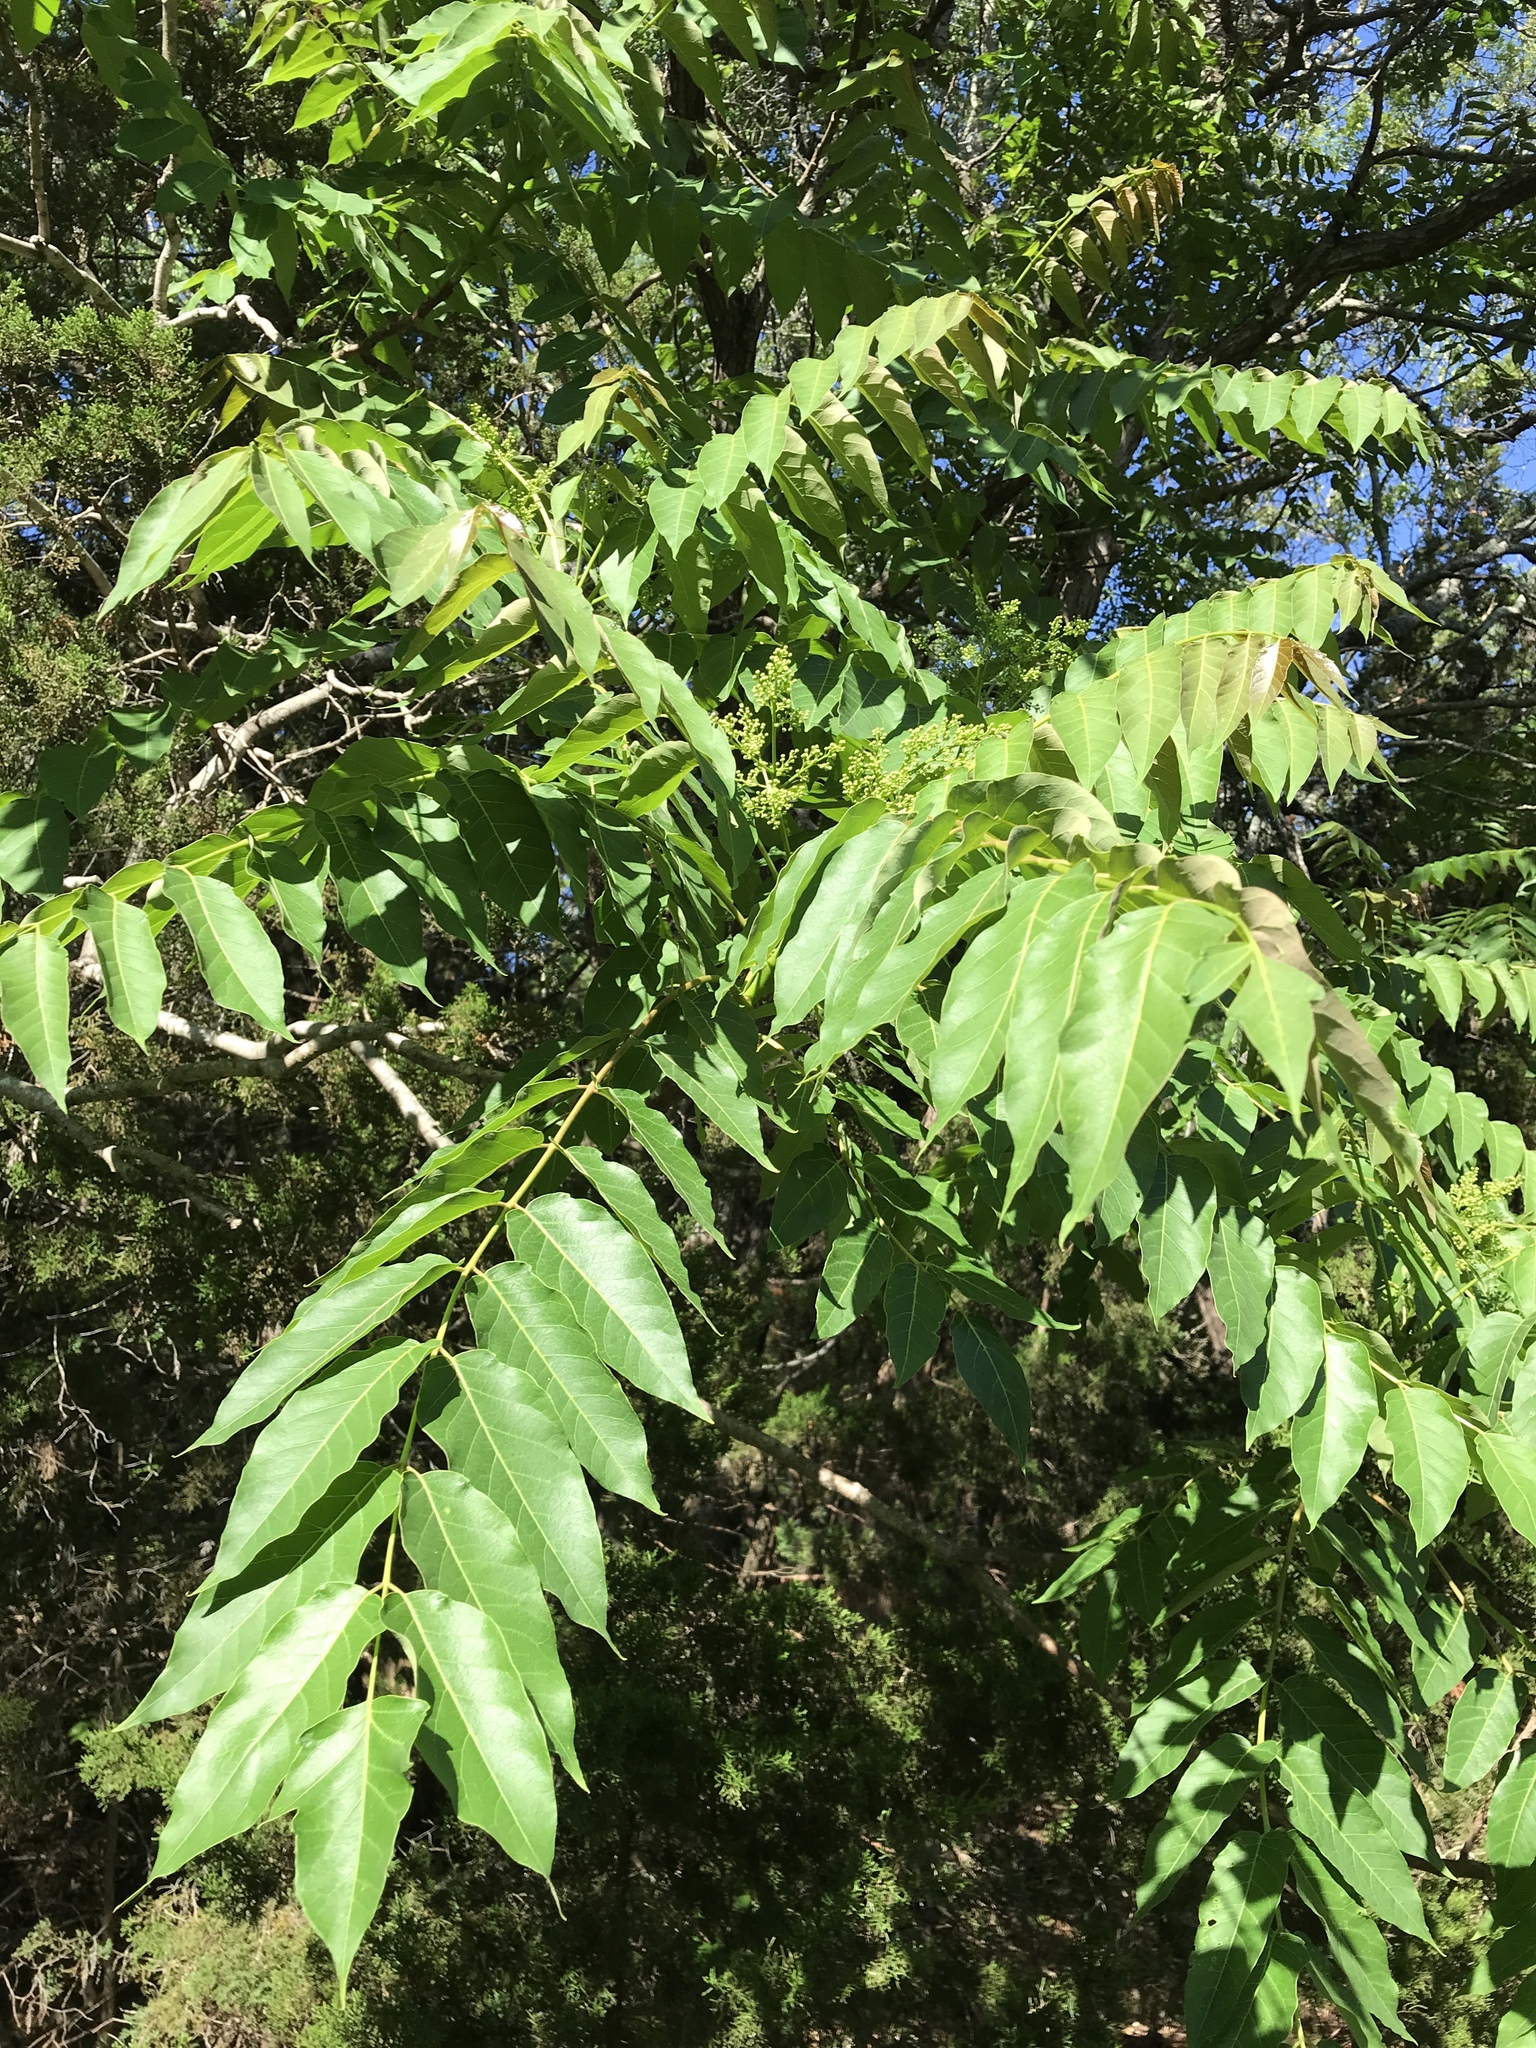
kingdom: Plantae
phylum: Tracheophyta
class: Magnoliopsida
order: Sapindales
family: Simaroubaceae
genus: Ailanthus
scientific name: Ailanthus altissima
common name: Tree-of-heaven
